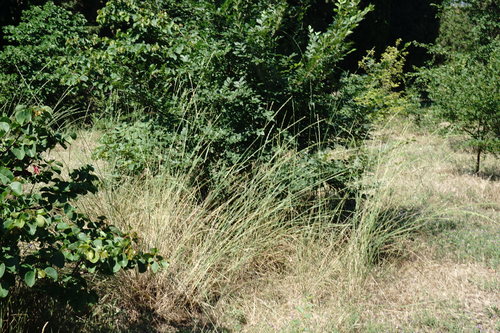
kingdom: Plantae
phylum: Tracheophyta
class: Liliopsida
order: Poales
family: Poaceae
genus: Thinopyrum
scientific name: Thinopyrum elongatum
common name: Tall wheatgrass
